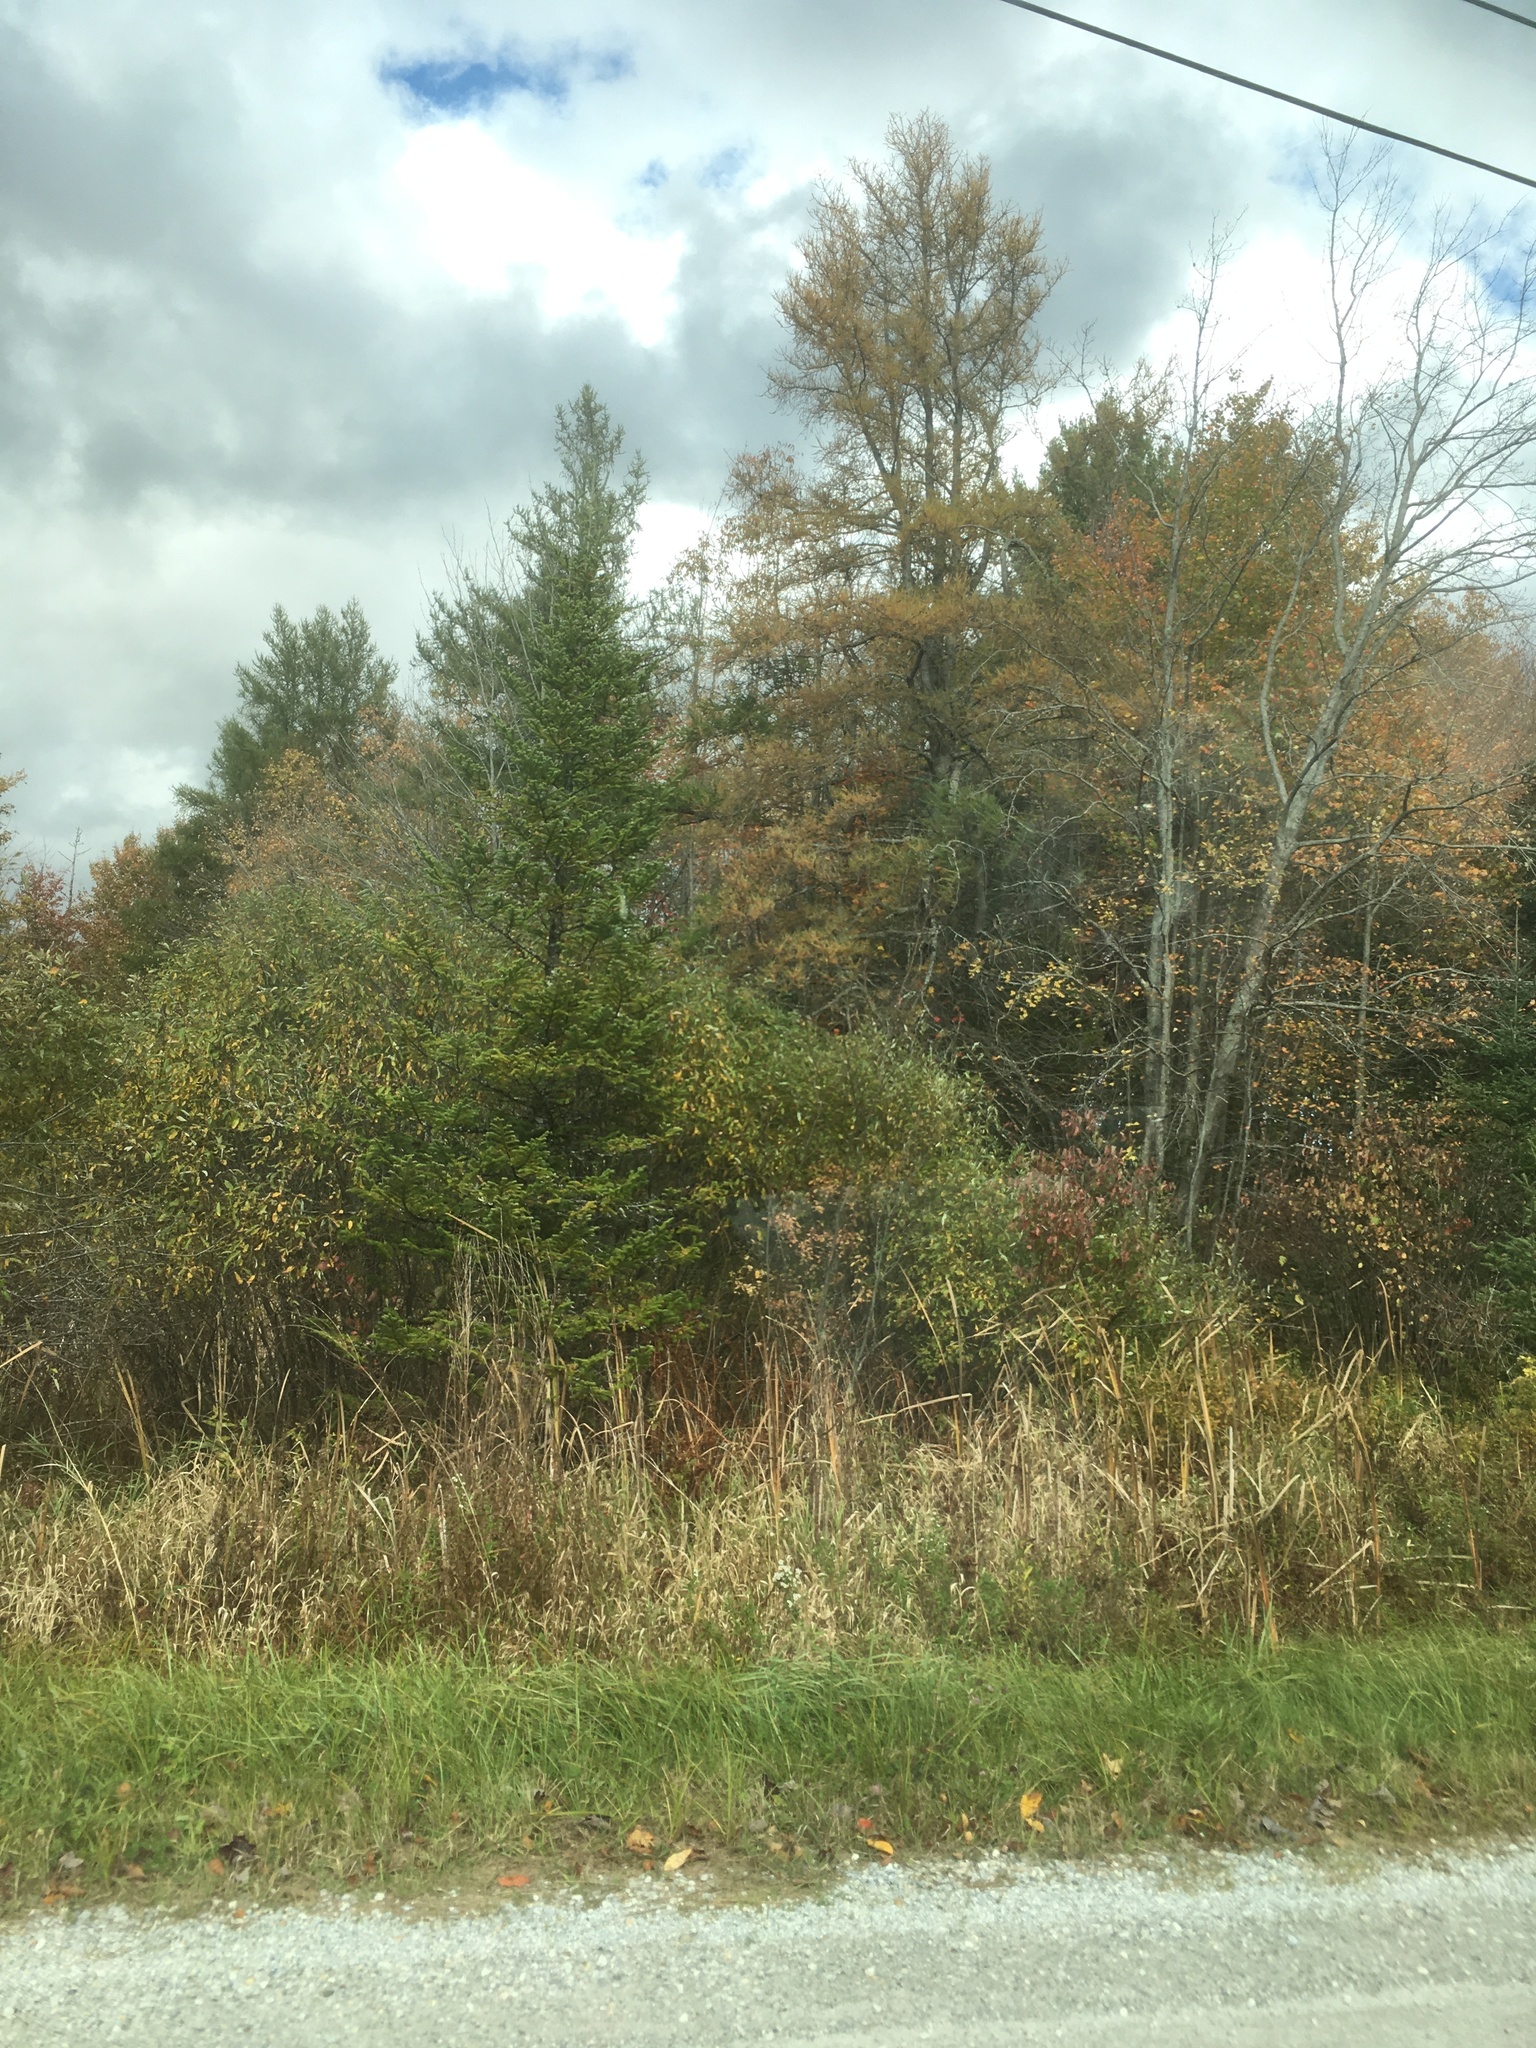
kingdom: Plantae
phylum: Tracheophyta
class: Pinopsida
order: Pinales
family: Pinaceae
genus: Larix
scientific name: Larix laricina
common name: American larch
